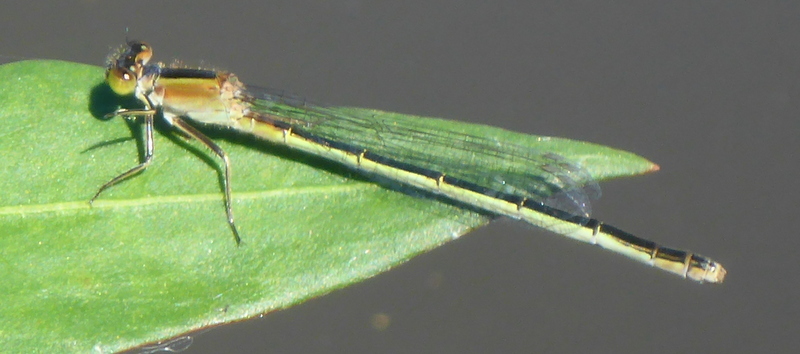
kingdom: Animalia
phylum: Arthropoda
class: Insecta
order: Odonata
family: Coenagrionidae
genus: Ischnura
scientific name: Ischnura ramburii
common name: Rambur's forktail
